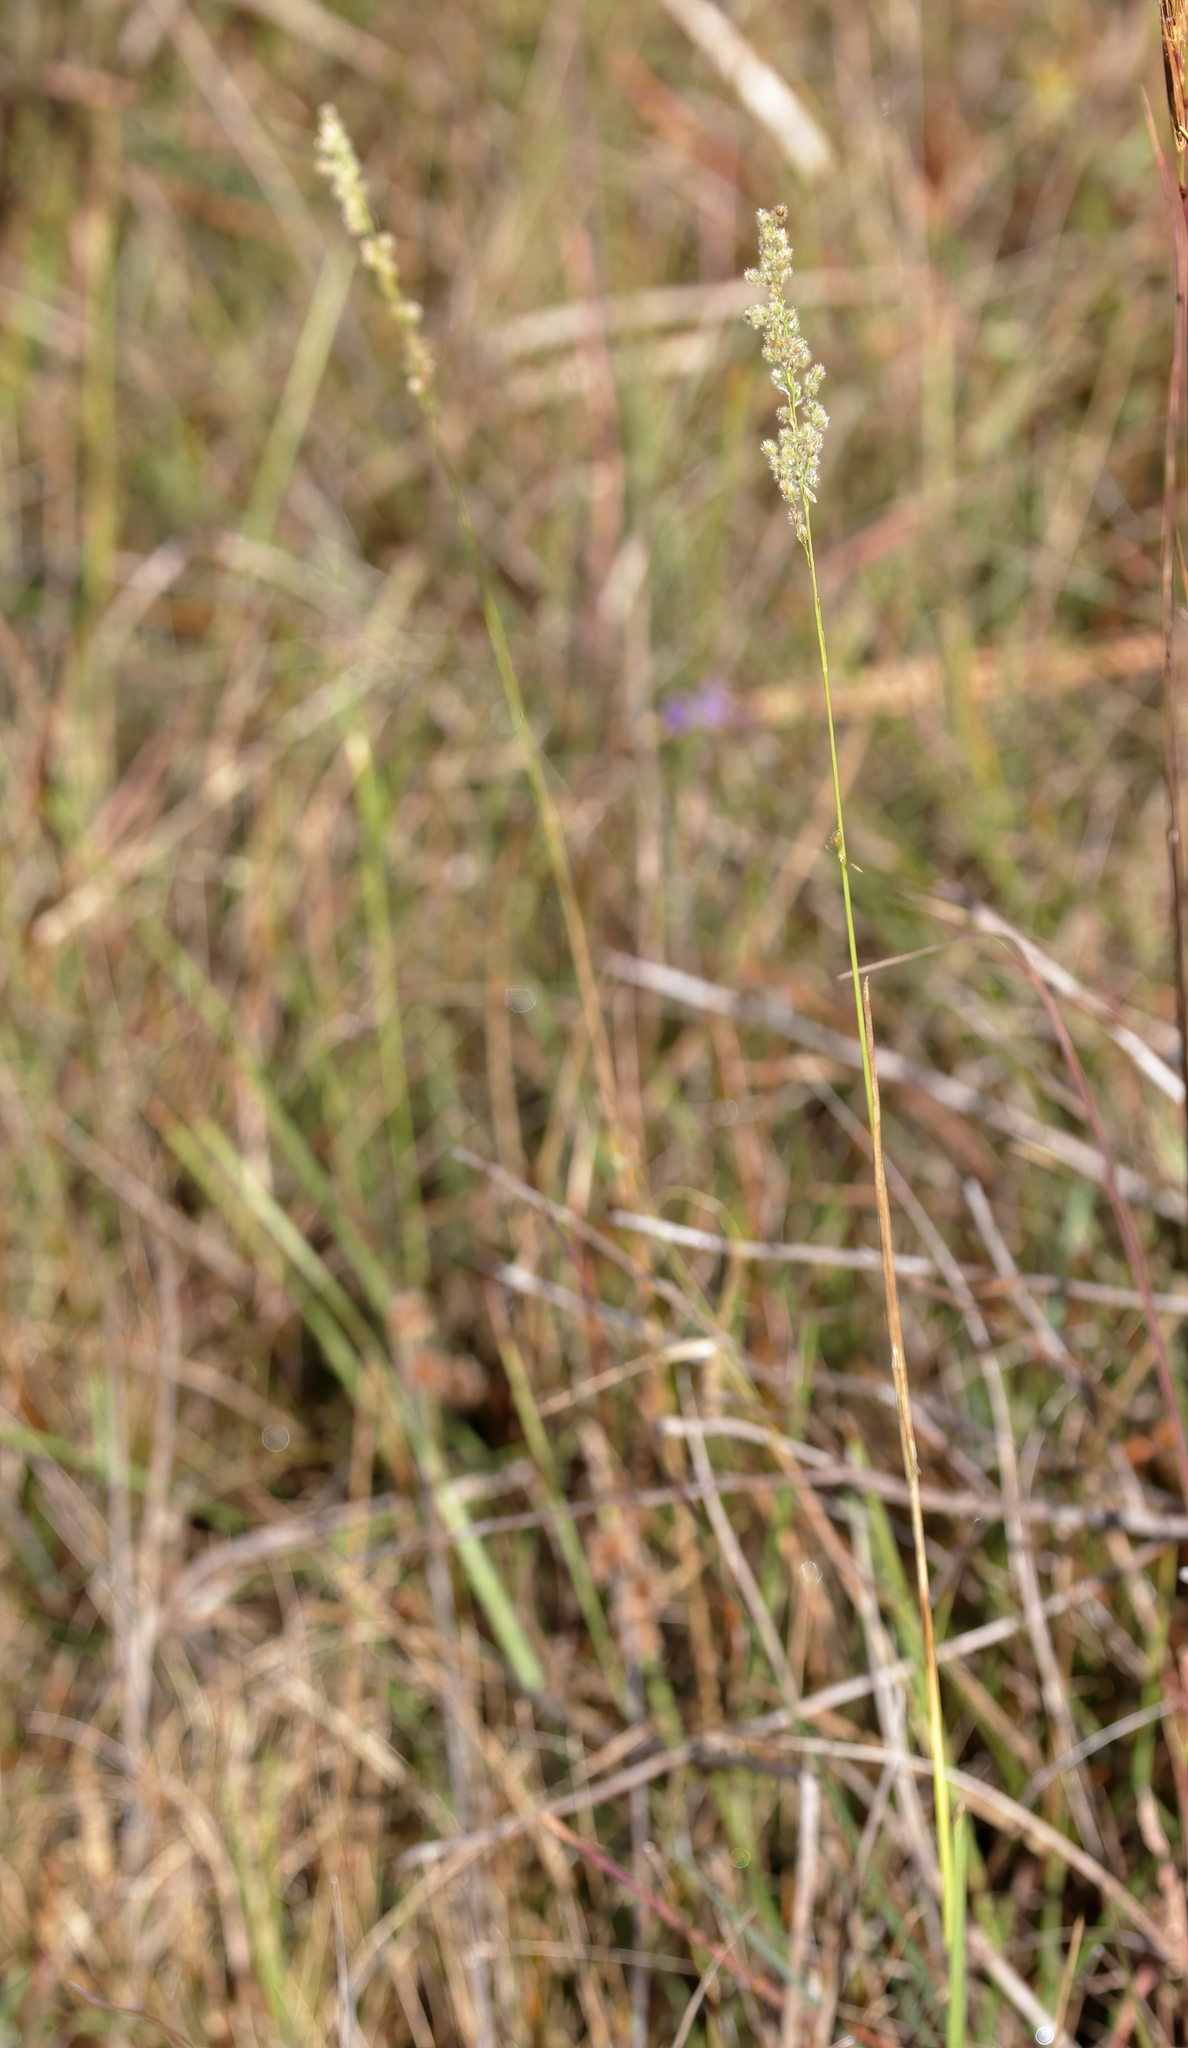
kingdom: Plantae
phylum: Tracheophyta
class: Liliopsida
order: Poales
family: Poaceae
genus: Anthenantia
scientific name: Anthenantia rufa
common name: Purple silkyscale
